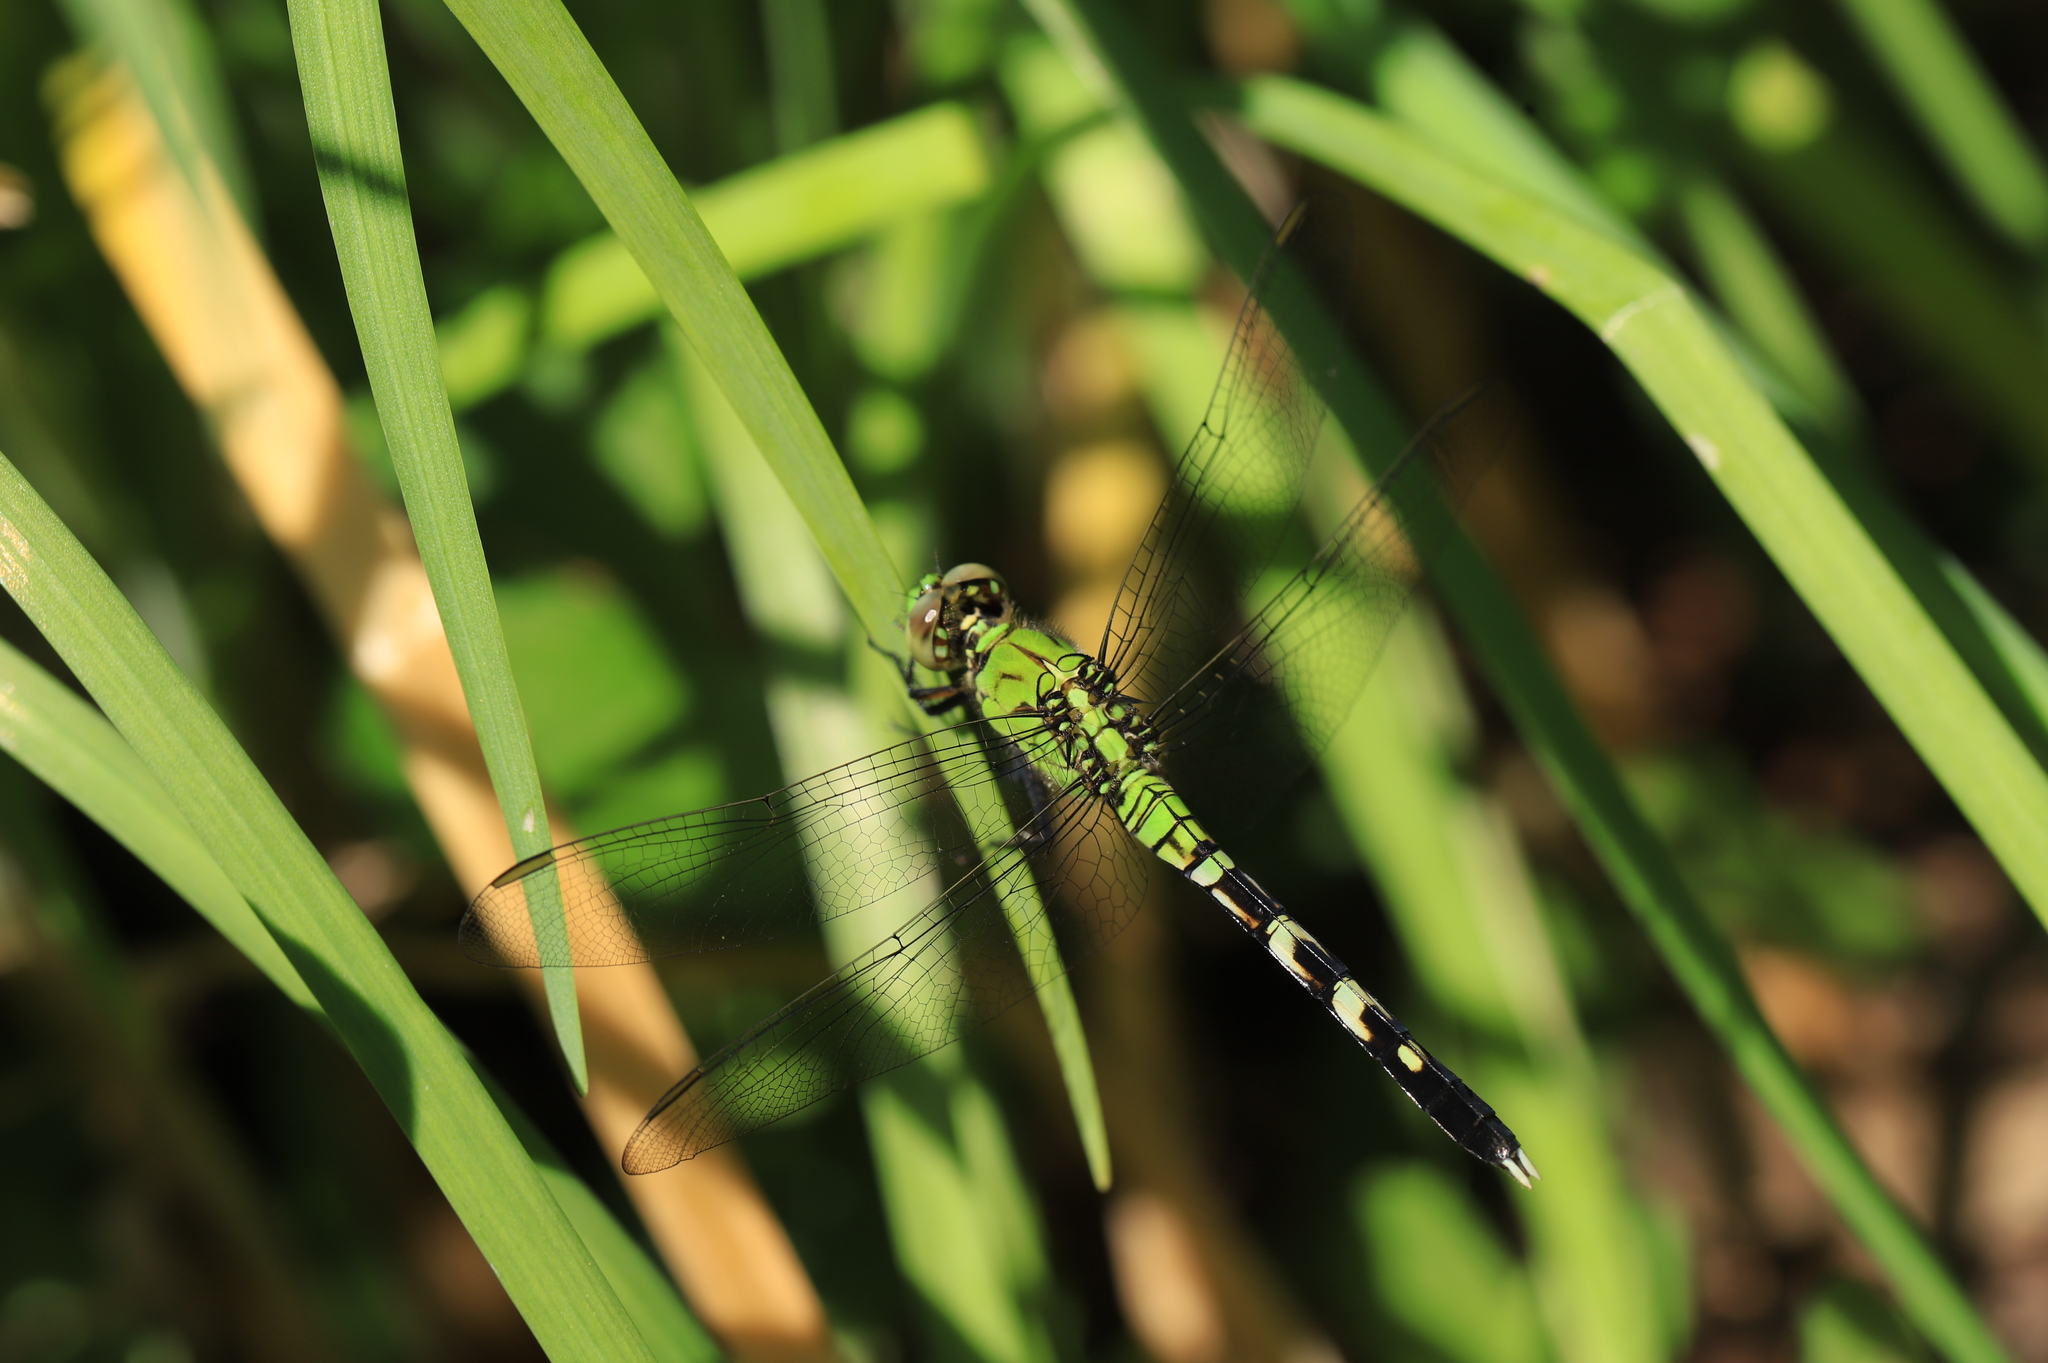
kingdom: Animalia
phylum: Arthropoda
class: Insecta
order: Odonata
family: Libellulidae
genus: Erythemis
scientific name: Erythemis simplicicollis
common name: Eastern pondhawk
